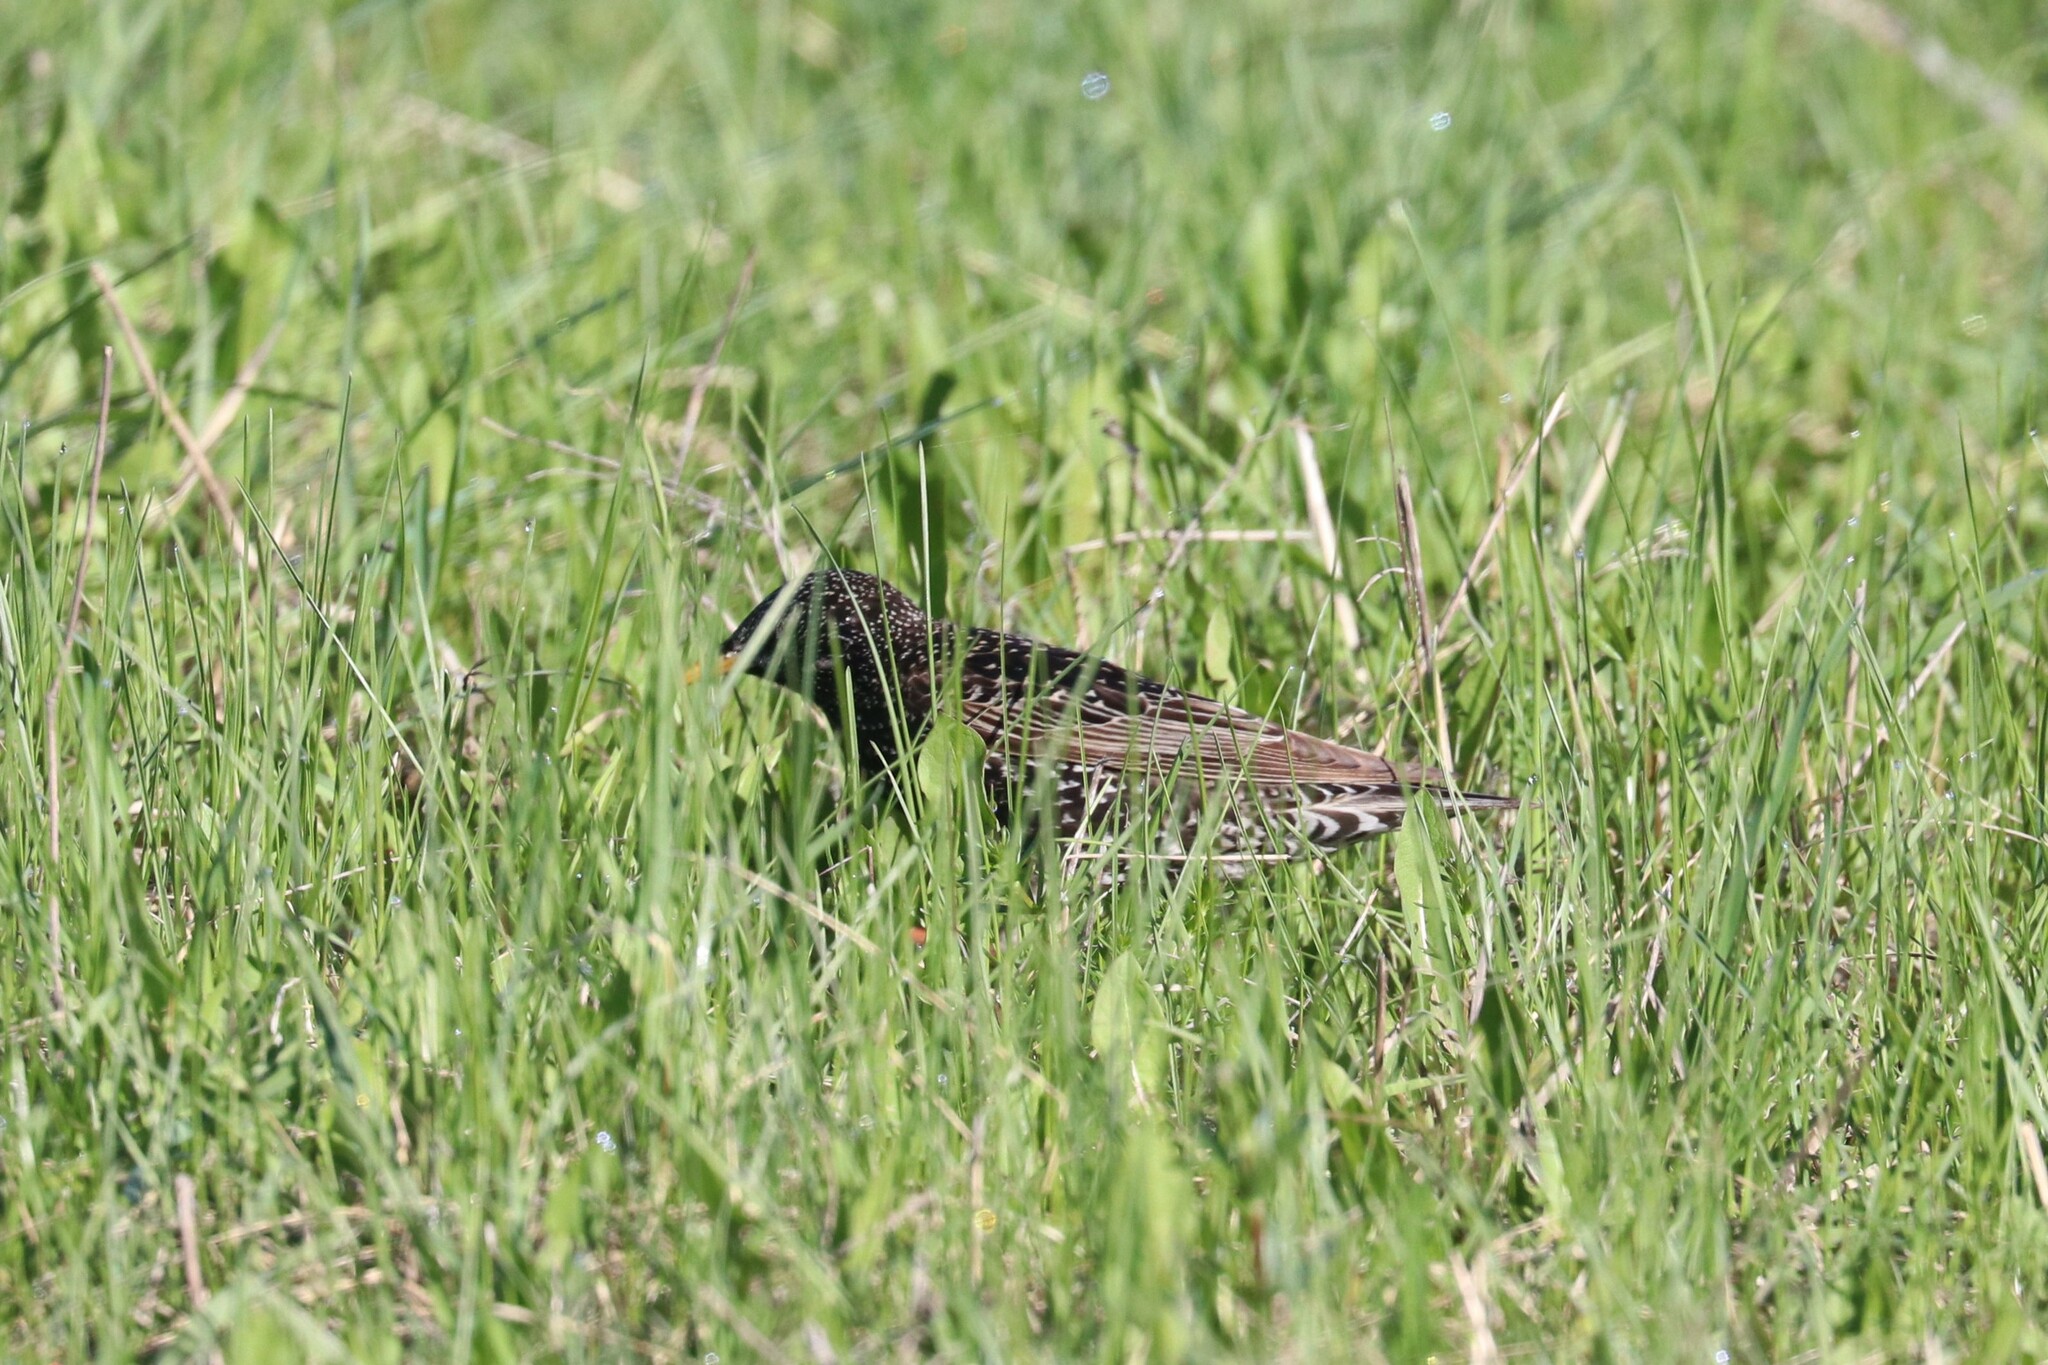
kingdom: Animalia
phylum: Chordata
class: Aves
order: Passeriformes
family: Sturnidae
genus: Sturnus
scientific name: Sturnus vulgaris
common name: Common starling
